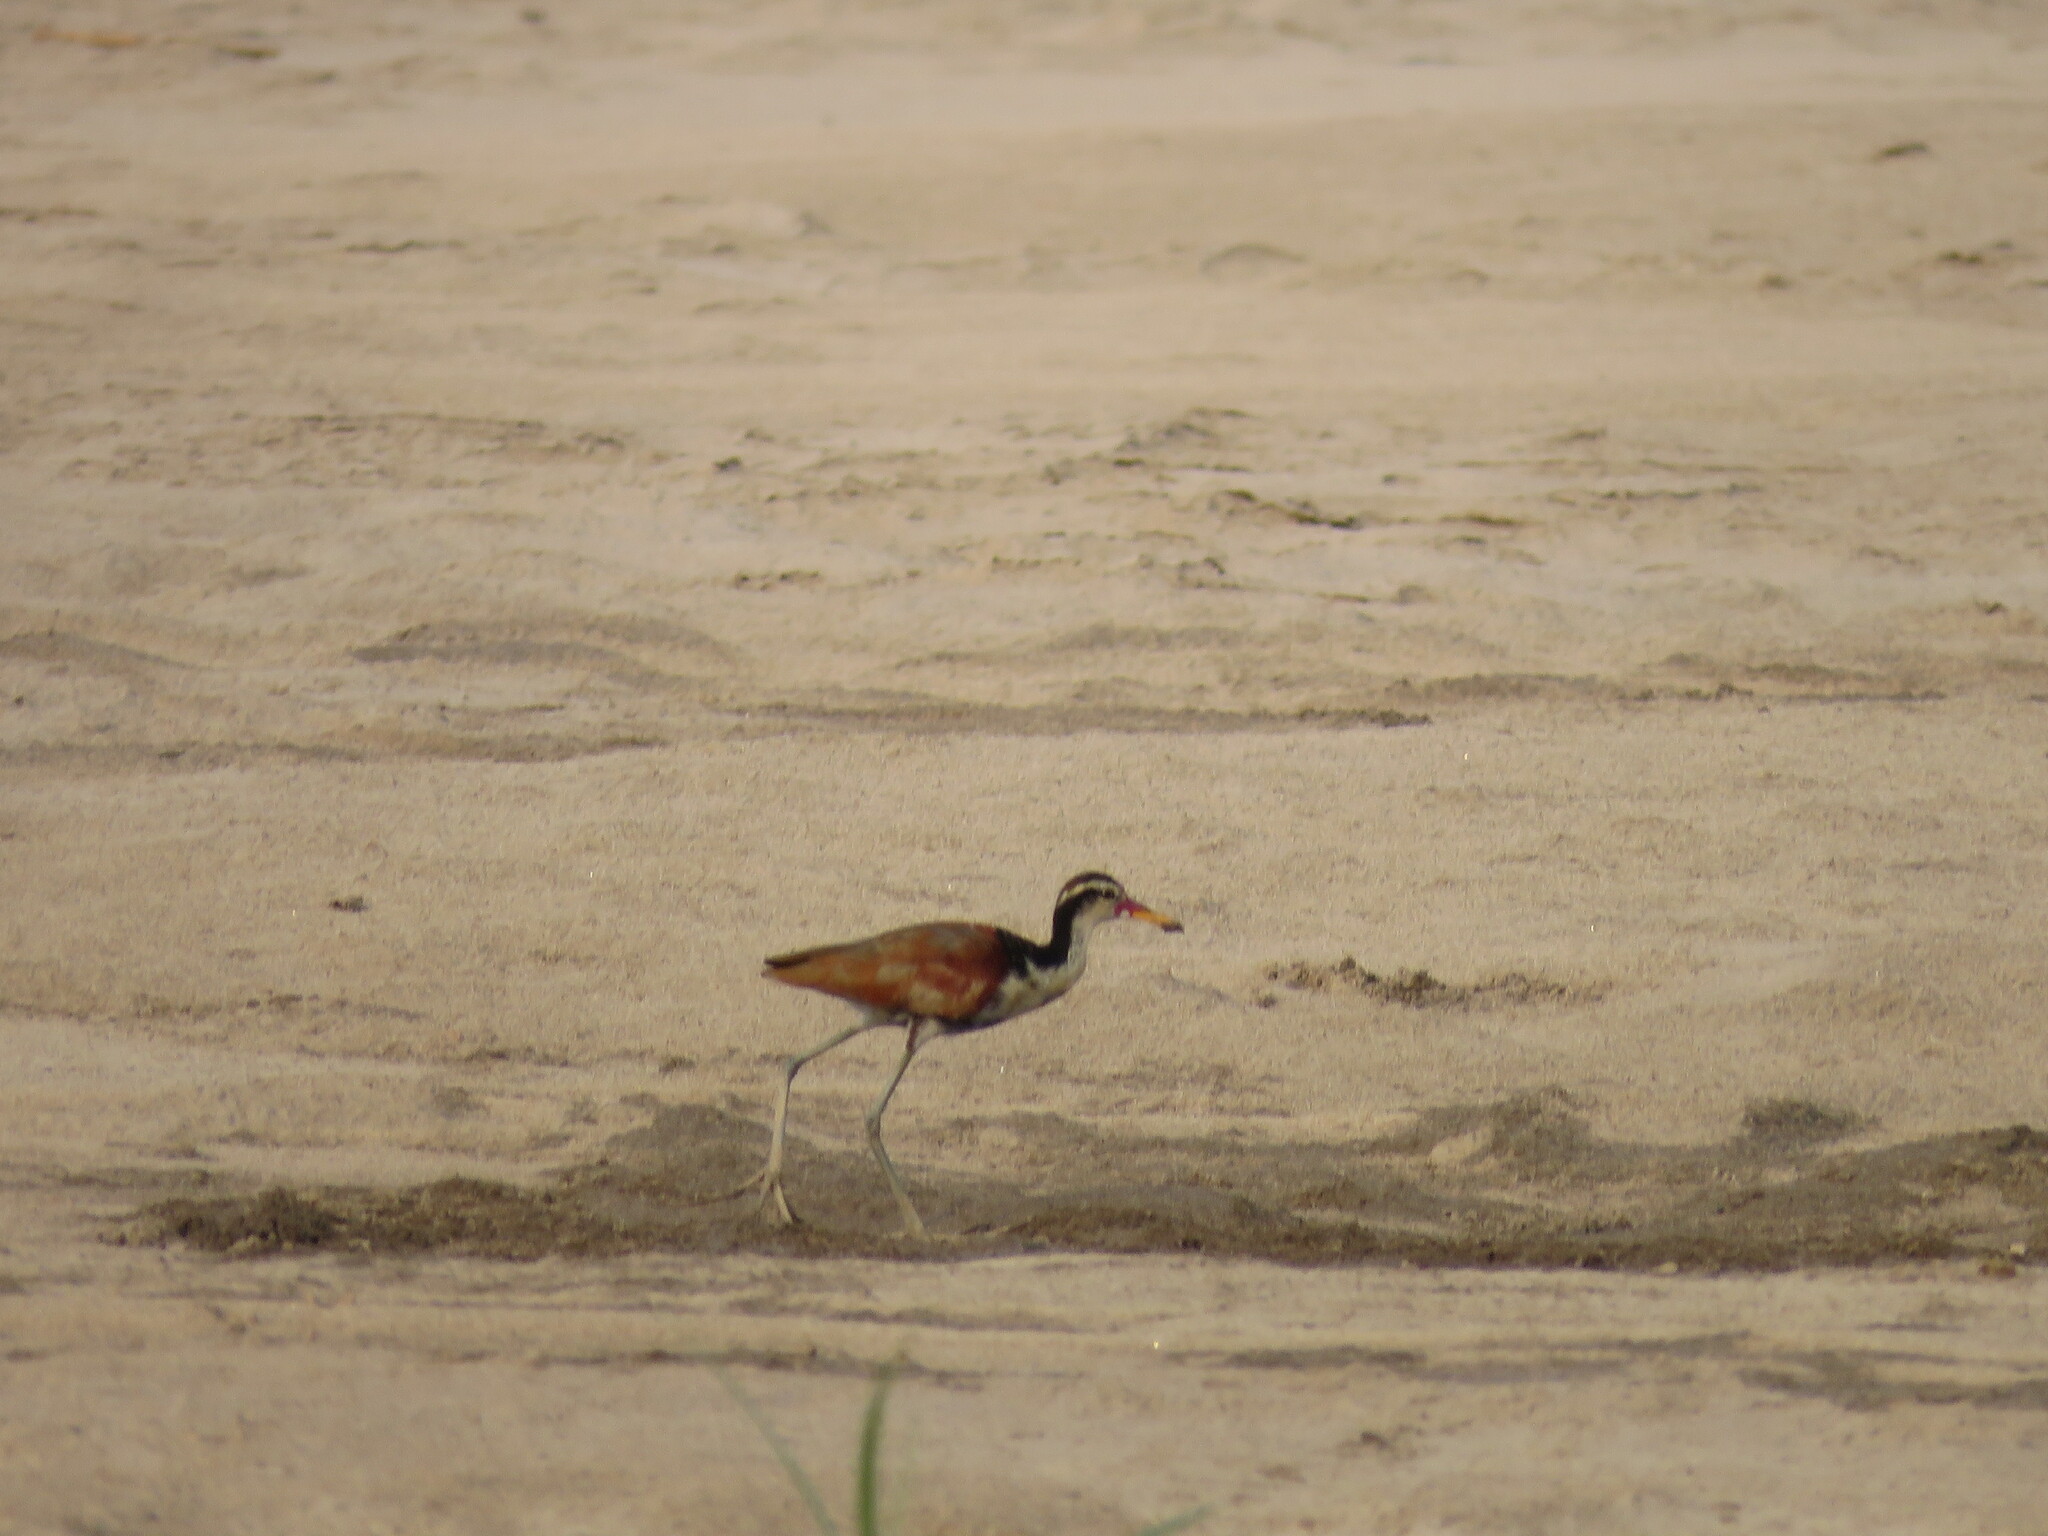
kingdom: Animalia
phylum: Chordata
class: Aves
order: Charadriiformes
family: Jacanidae
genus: Jacana
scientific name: Jacana jacana
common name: Wattled jacana
